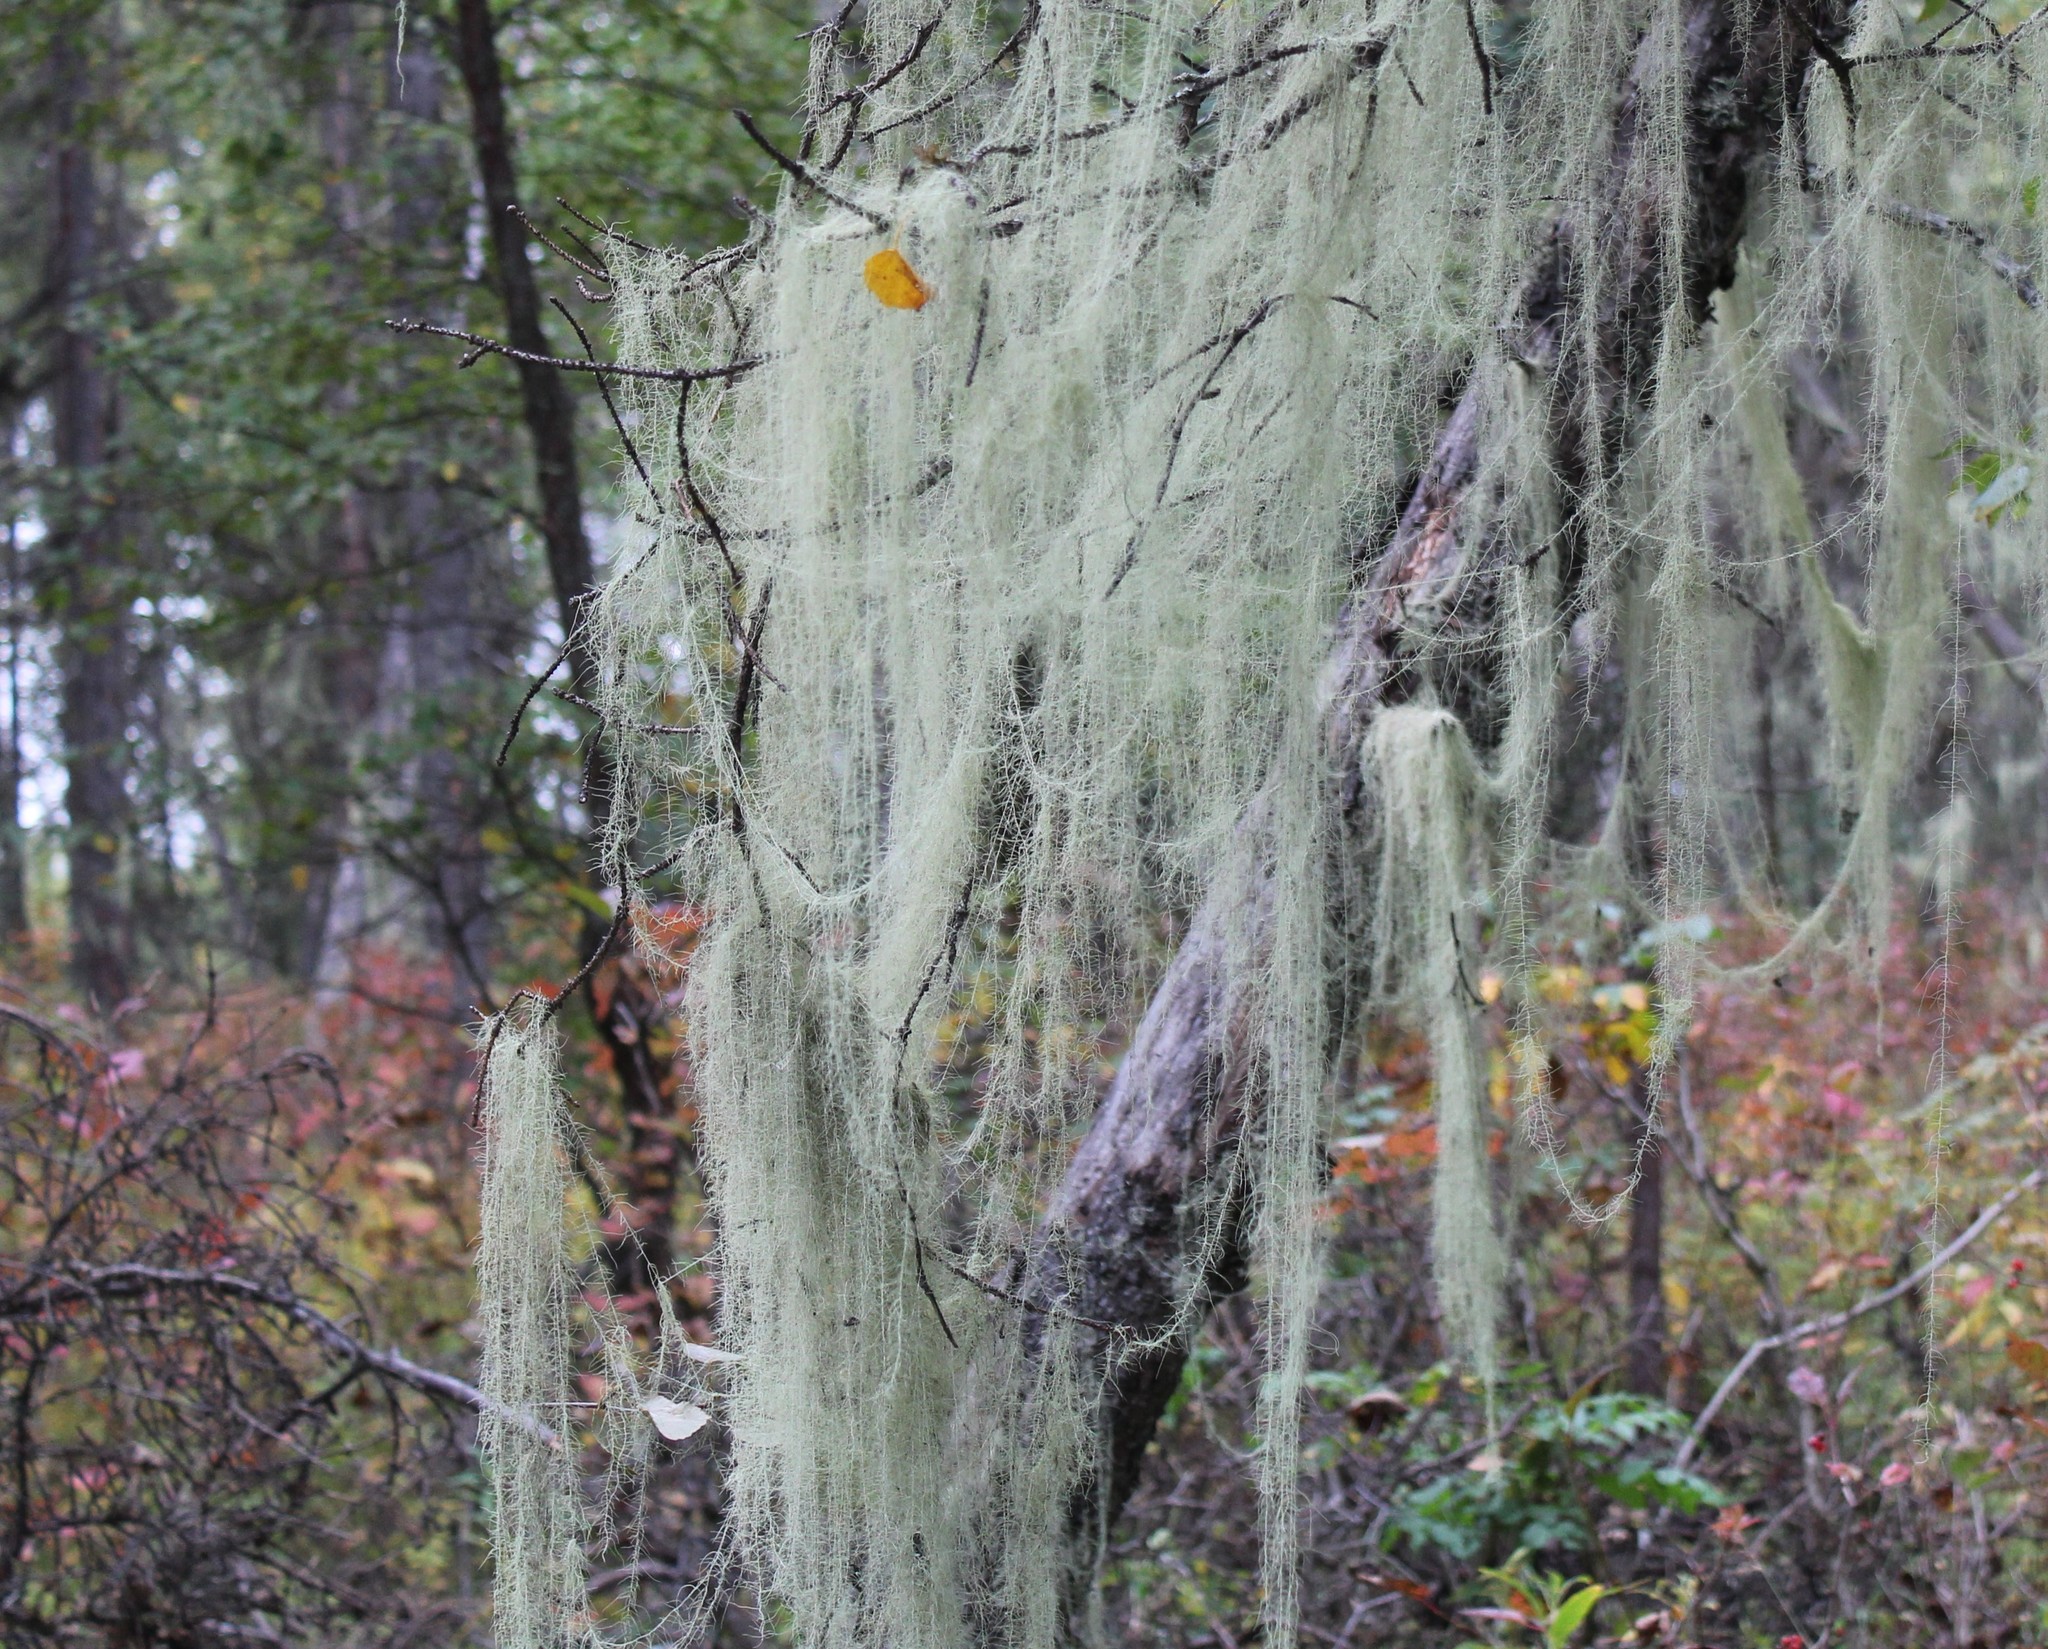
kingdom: Fungi
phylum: Ascomycota
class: Lecanoromycetes
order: Lecanorales
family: Parmeliaceae
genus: Dolichousnea
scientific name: Dolichousnea longissima
